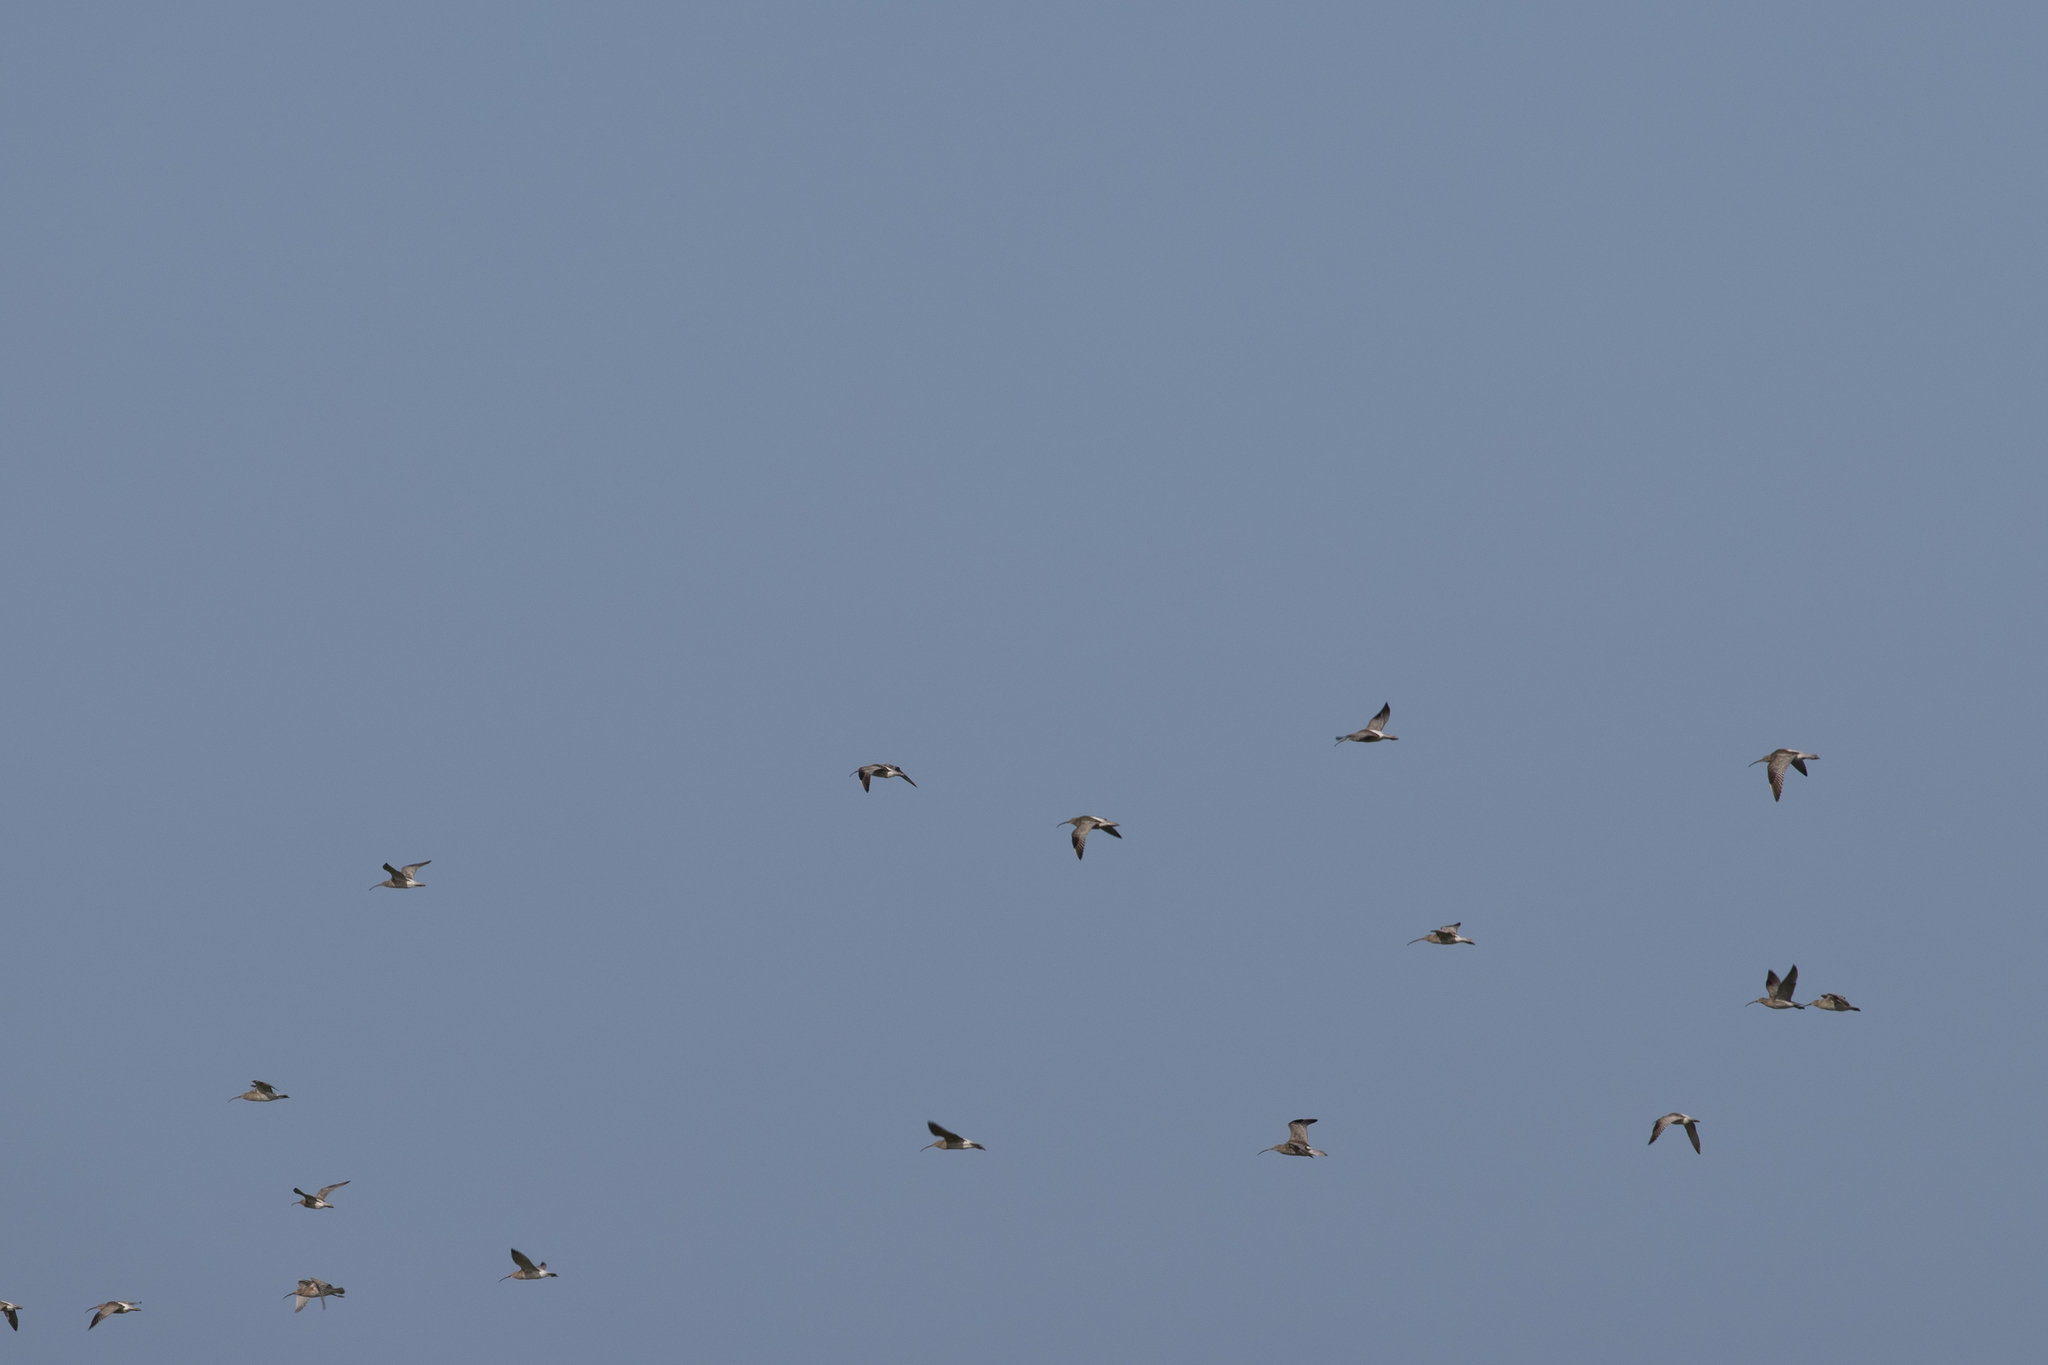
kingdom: Animalia
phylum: Chordata
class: Aves
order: Charadriiformes
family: Scolopacidae
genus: Numenius
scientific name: Numenius arquata
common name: Eurasian curlew
